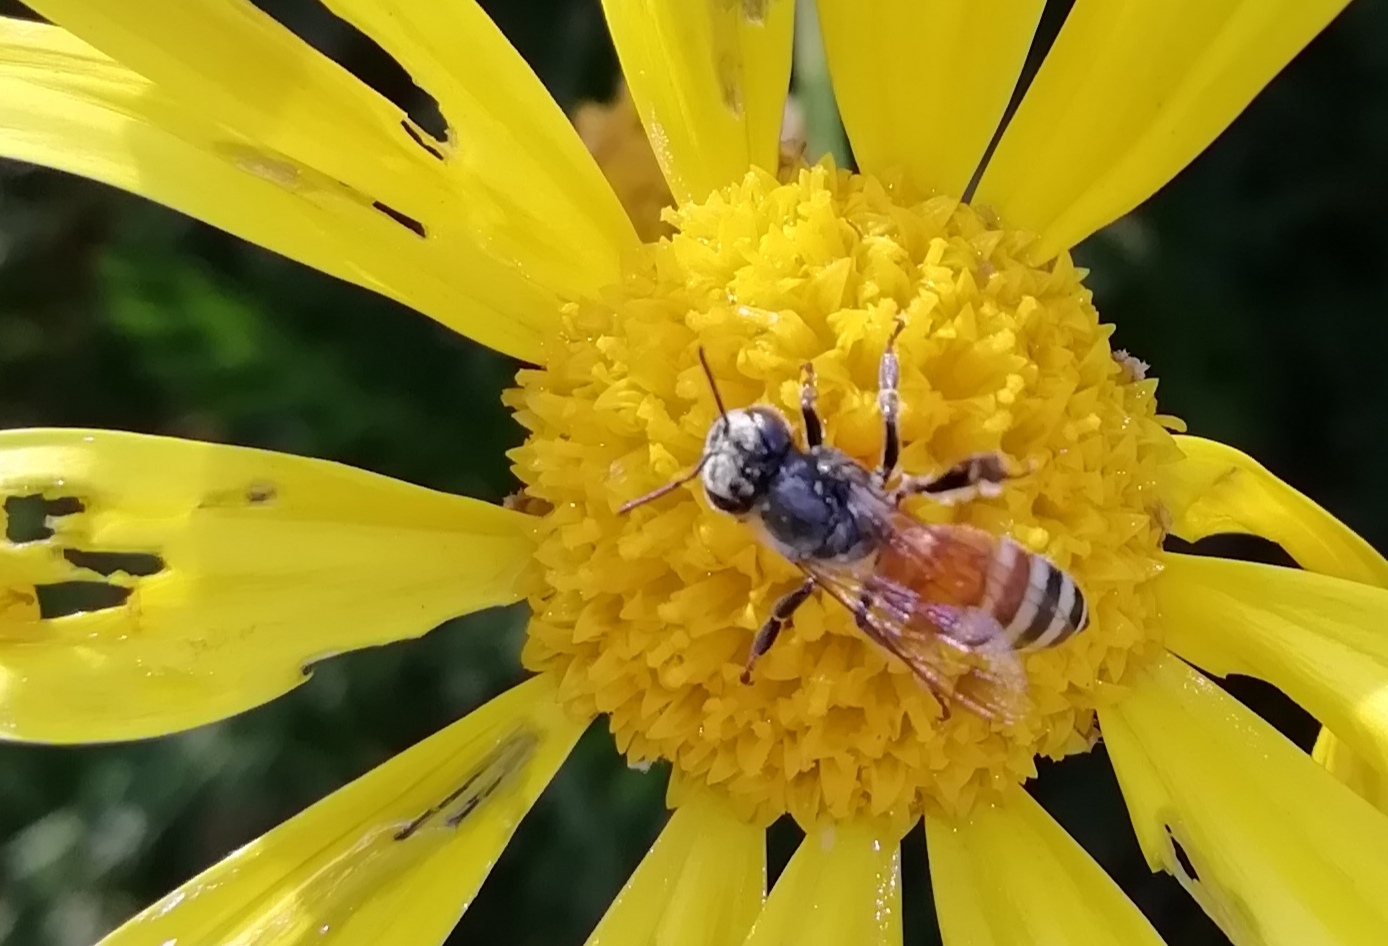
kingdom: Animalia
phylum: Arthropoda
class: Insecta
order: Hymenoptera
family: Apidae
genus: Apis
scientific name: Apis florea
